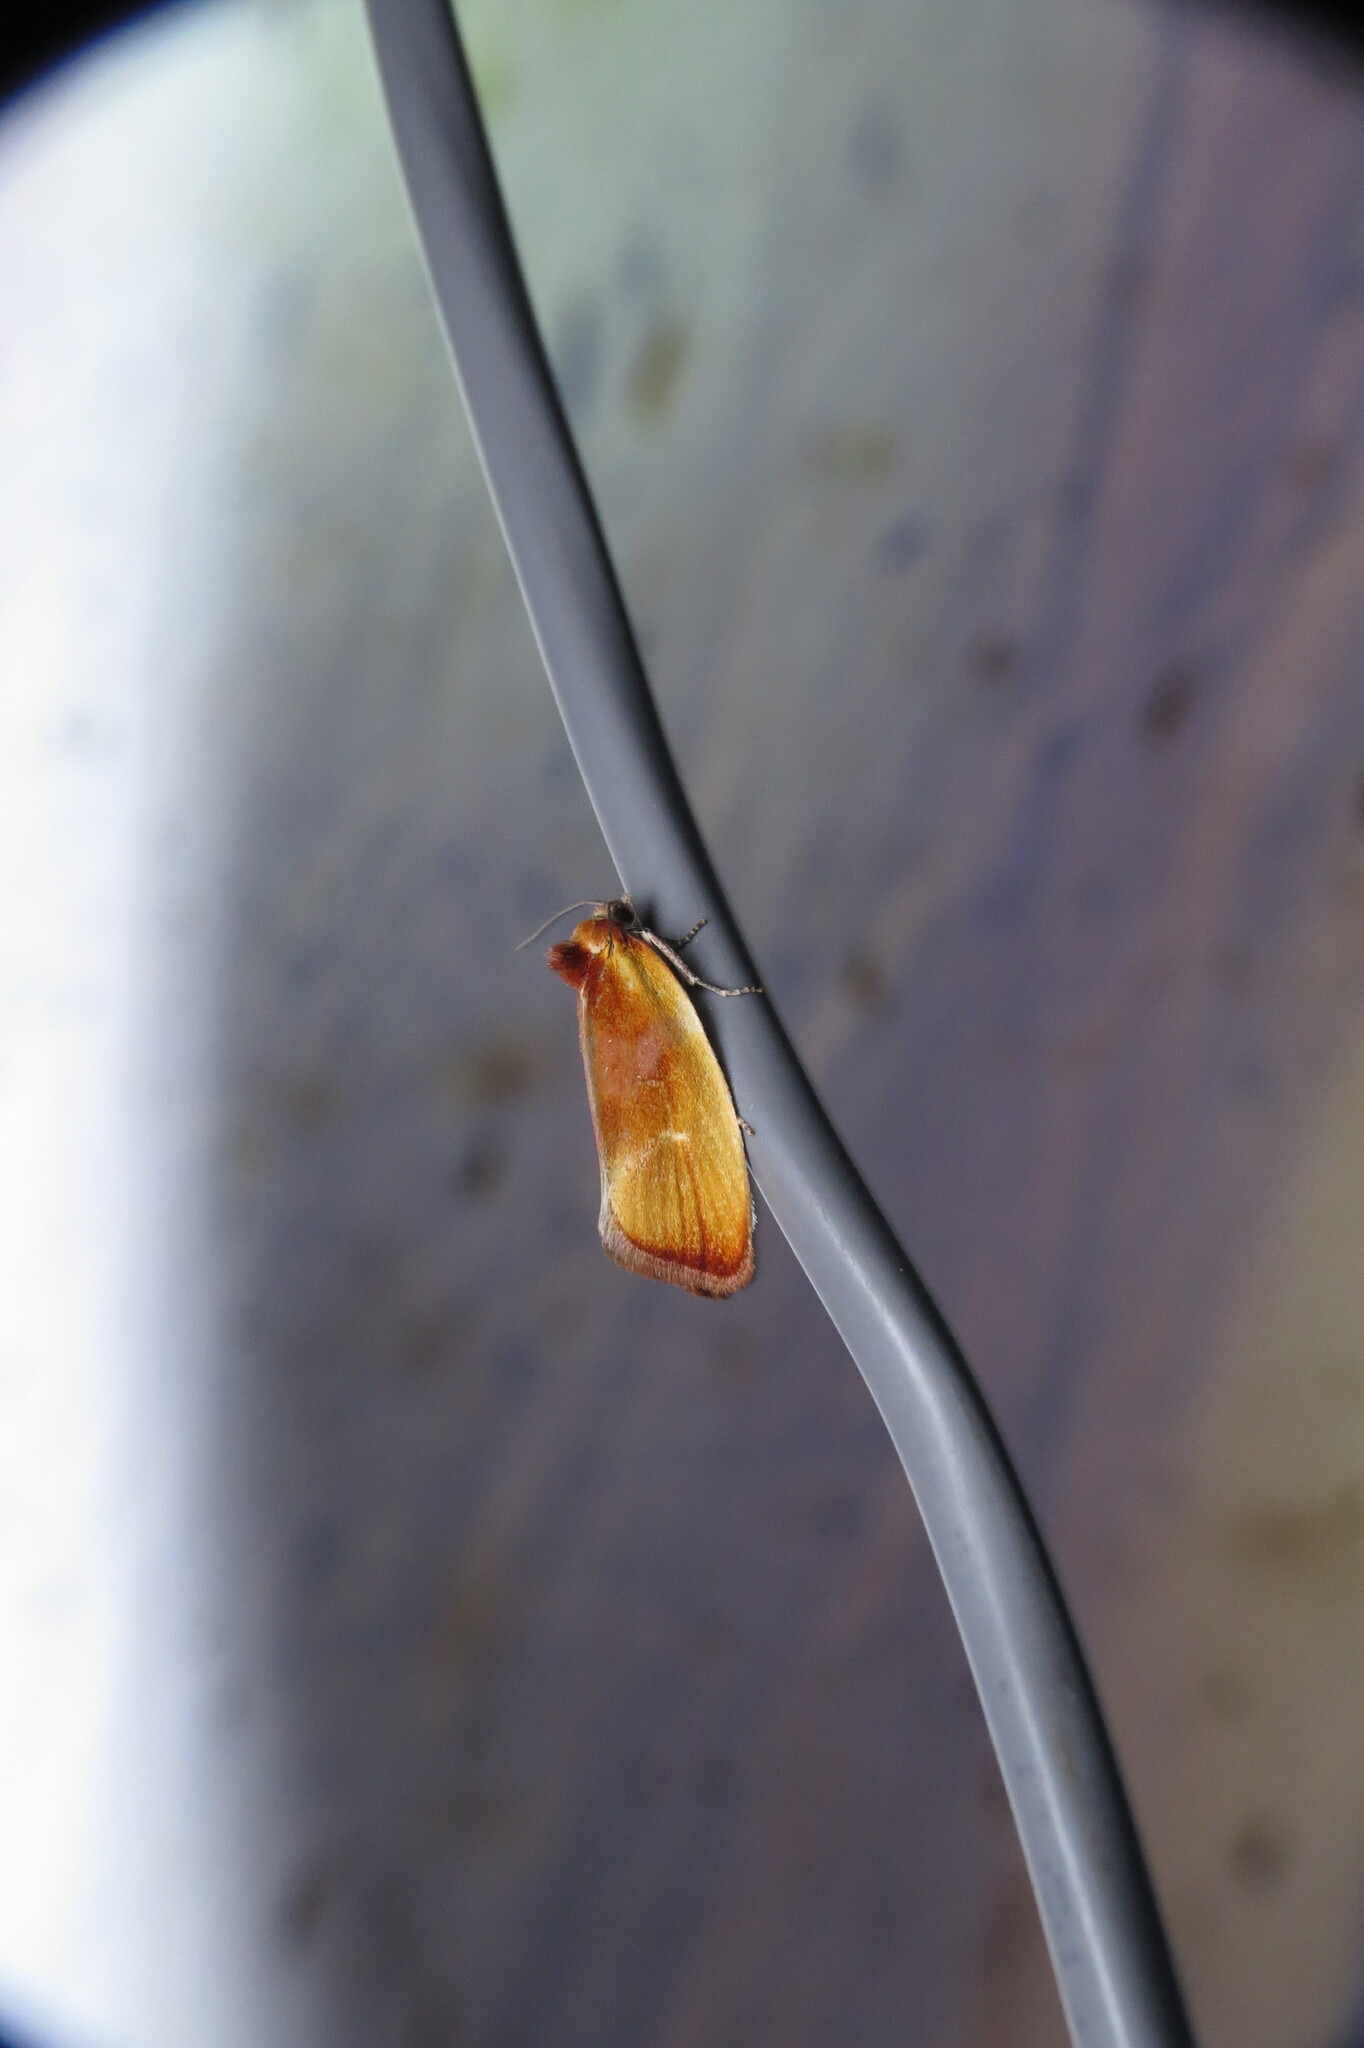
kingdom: Animalia
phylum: Arthropoda
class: Insecta
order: Lepidoptera
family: Tortricidae
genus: Eulia
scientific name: Eulia ministrana
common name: Brassy twist
